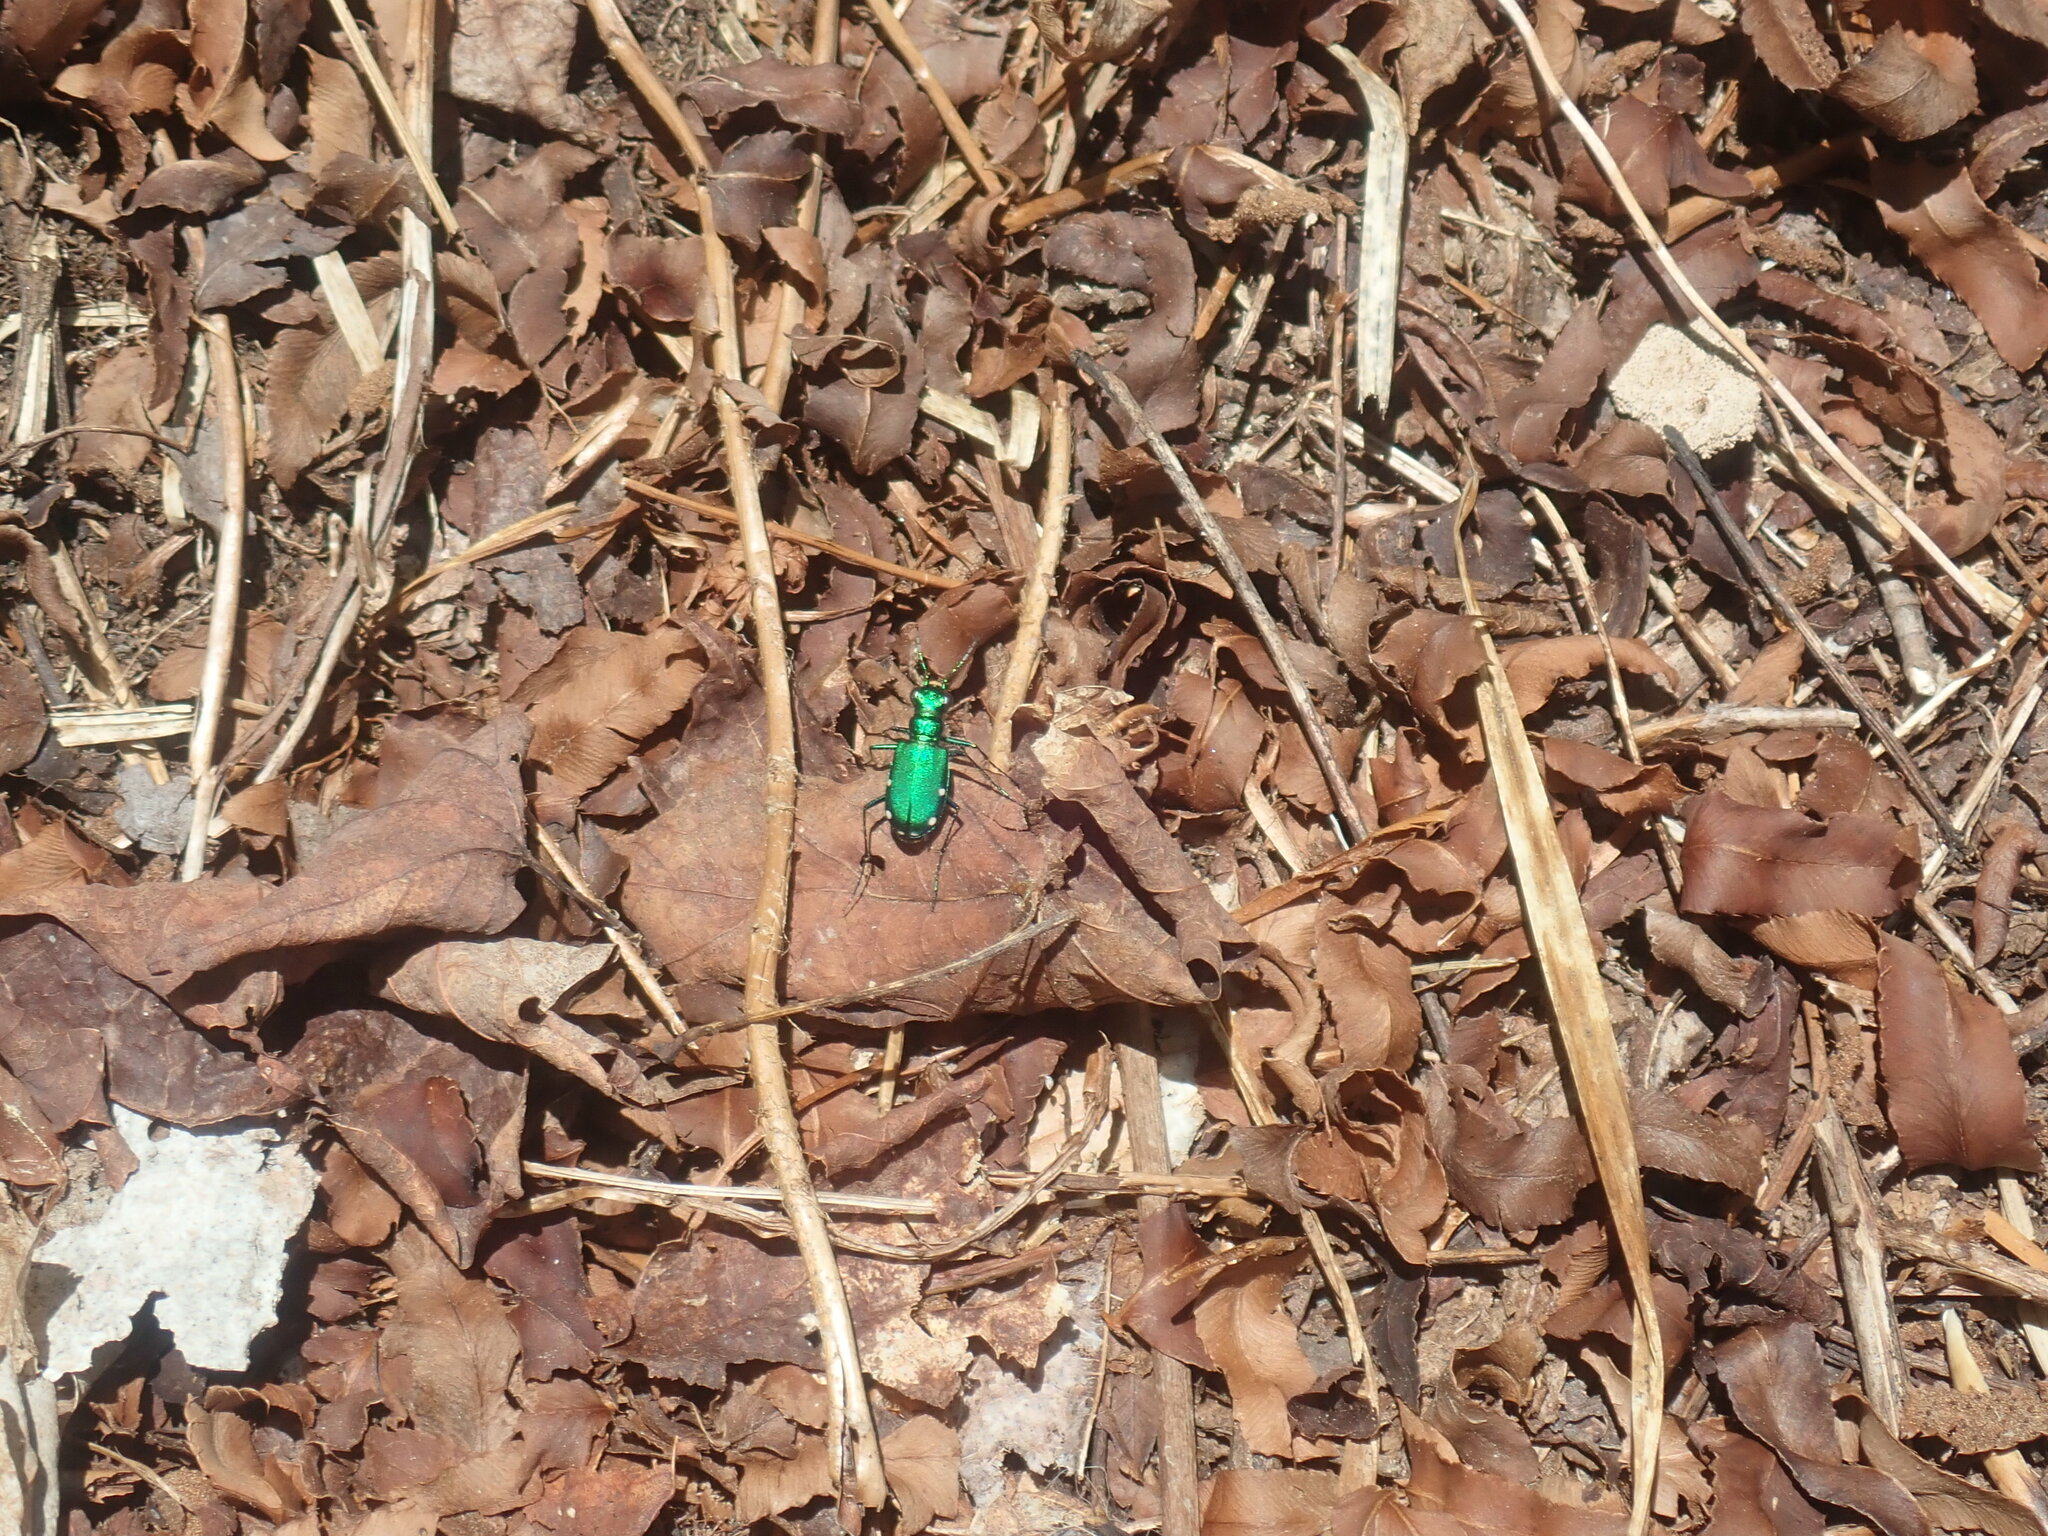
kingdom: Animalia
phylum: Arthropoda
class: Insecta
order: Coleoptera
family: Carabidae
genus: Cicindela
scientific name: Cicindela sexguttata
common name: Six-spotted tiger beetle
